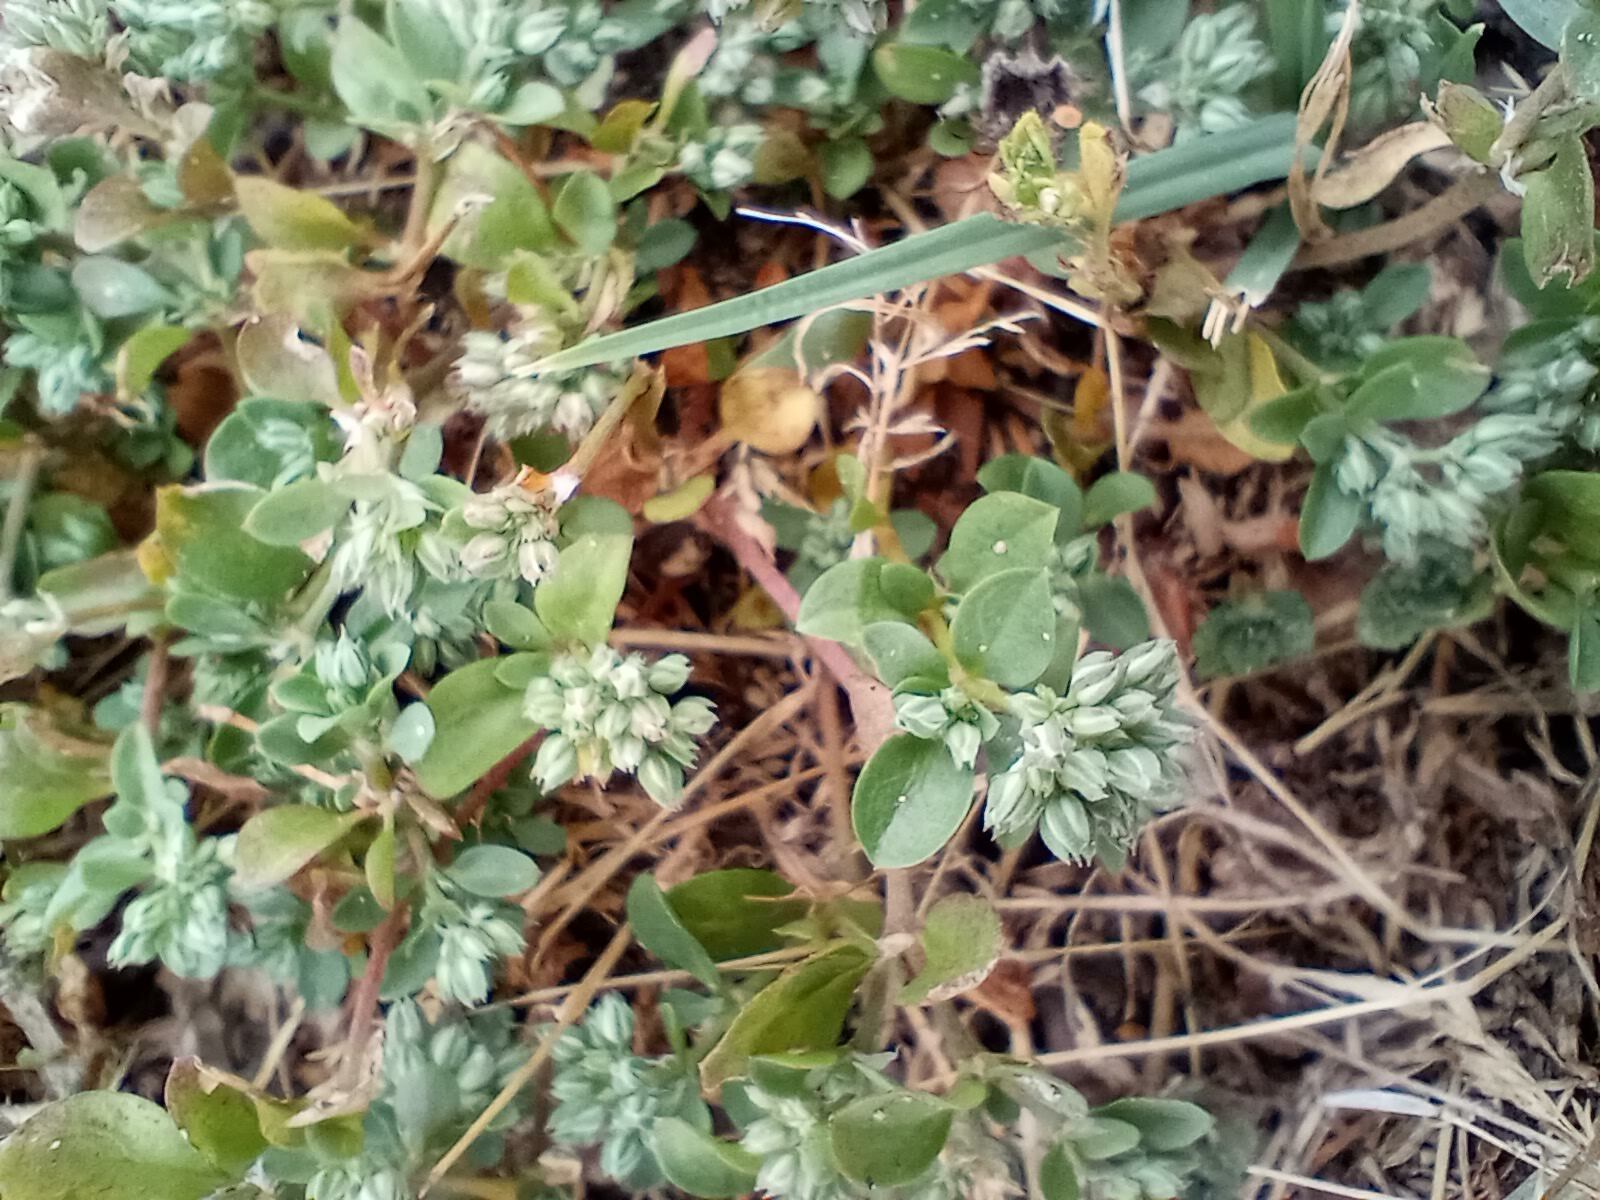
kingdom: Plantae
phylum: Tracheophyta
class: Magnoliopsida
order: Caryophyllales
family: Caryophyllaceae
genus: Polycarpon
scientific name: Polycarpon tetraphyllum
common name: Four-leaved all-seed
